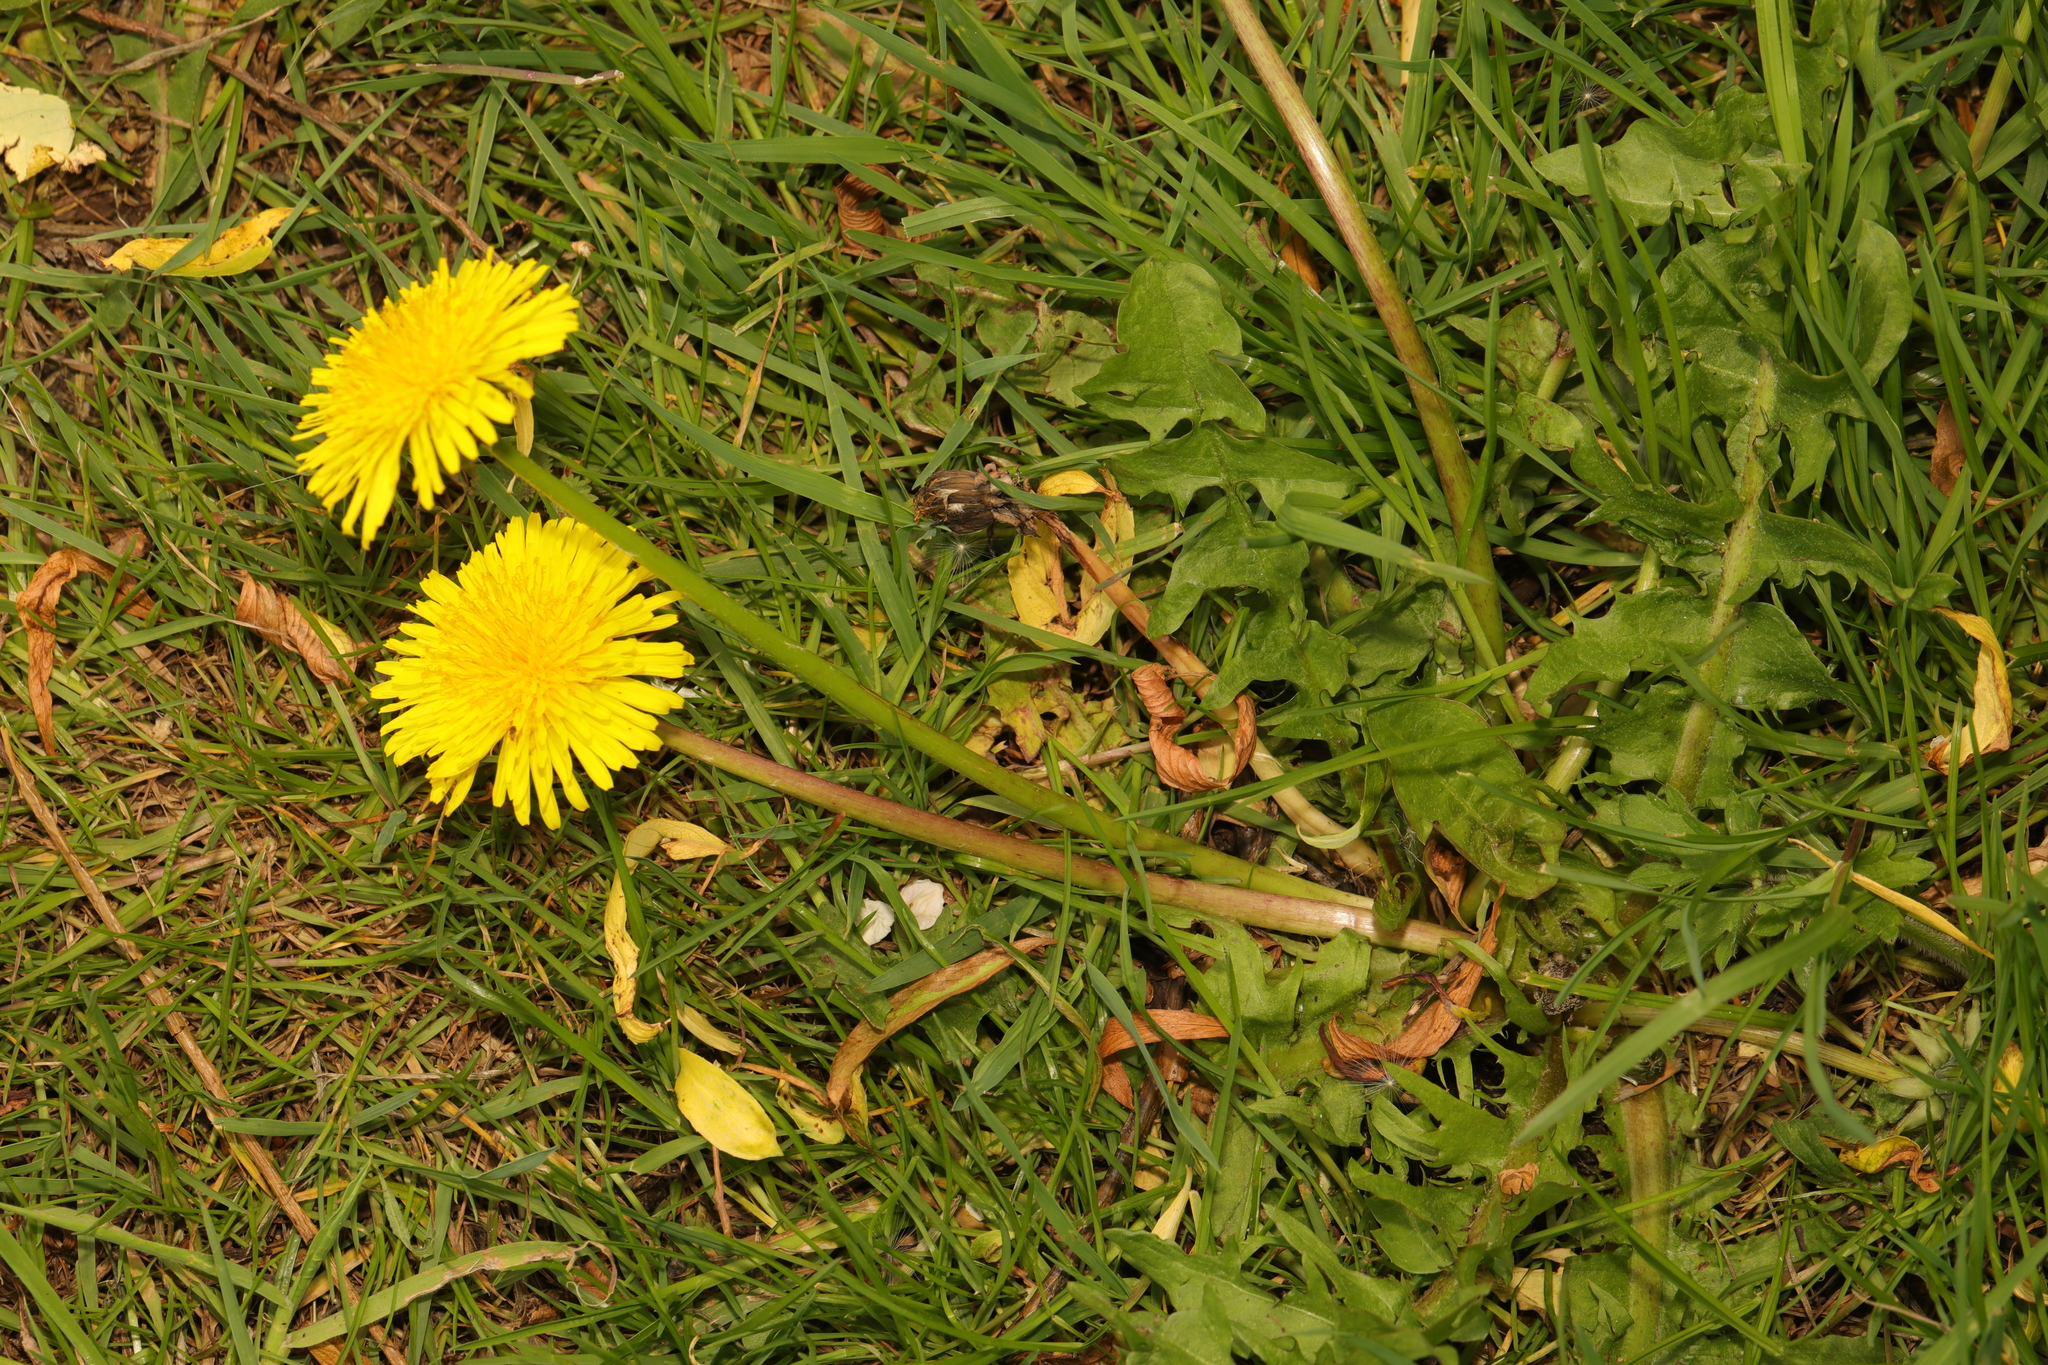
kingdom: Plantae
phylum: Tracheophyta
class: Magnoliopsida
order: Asterales
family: Asteraceae
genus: Taraxacum
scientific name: Taraxacum officinale
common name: Common dandelion
